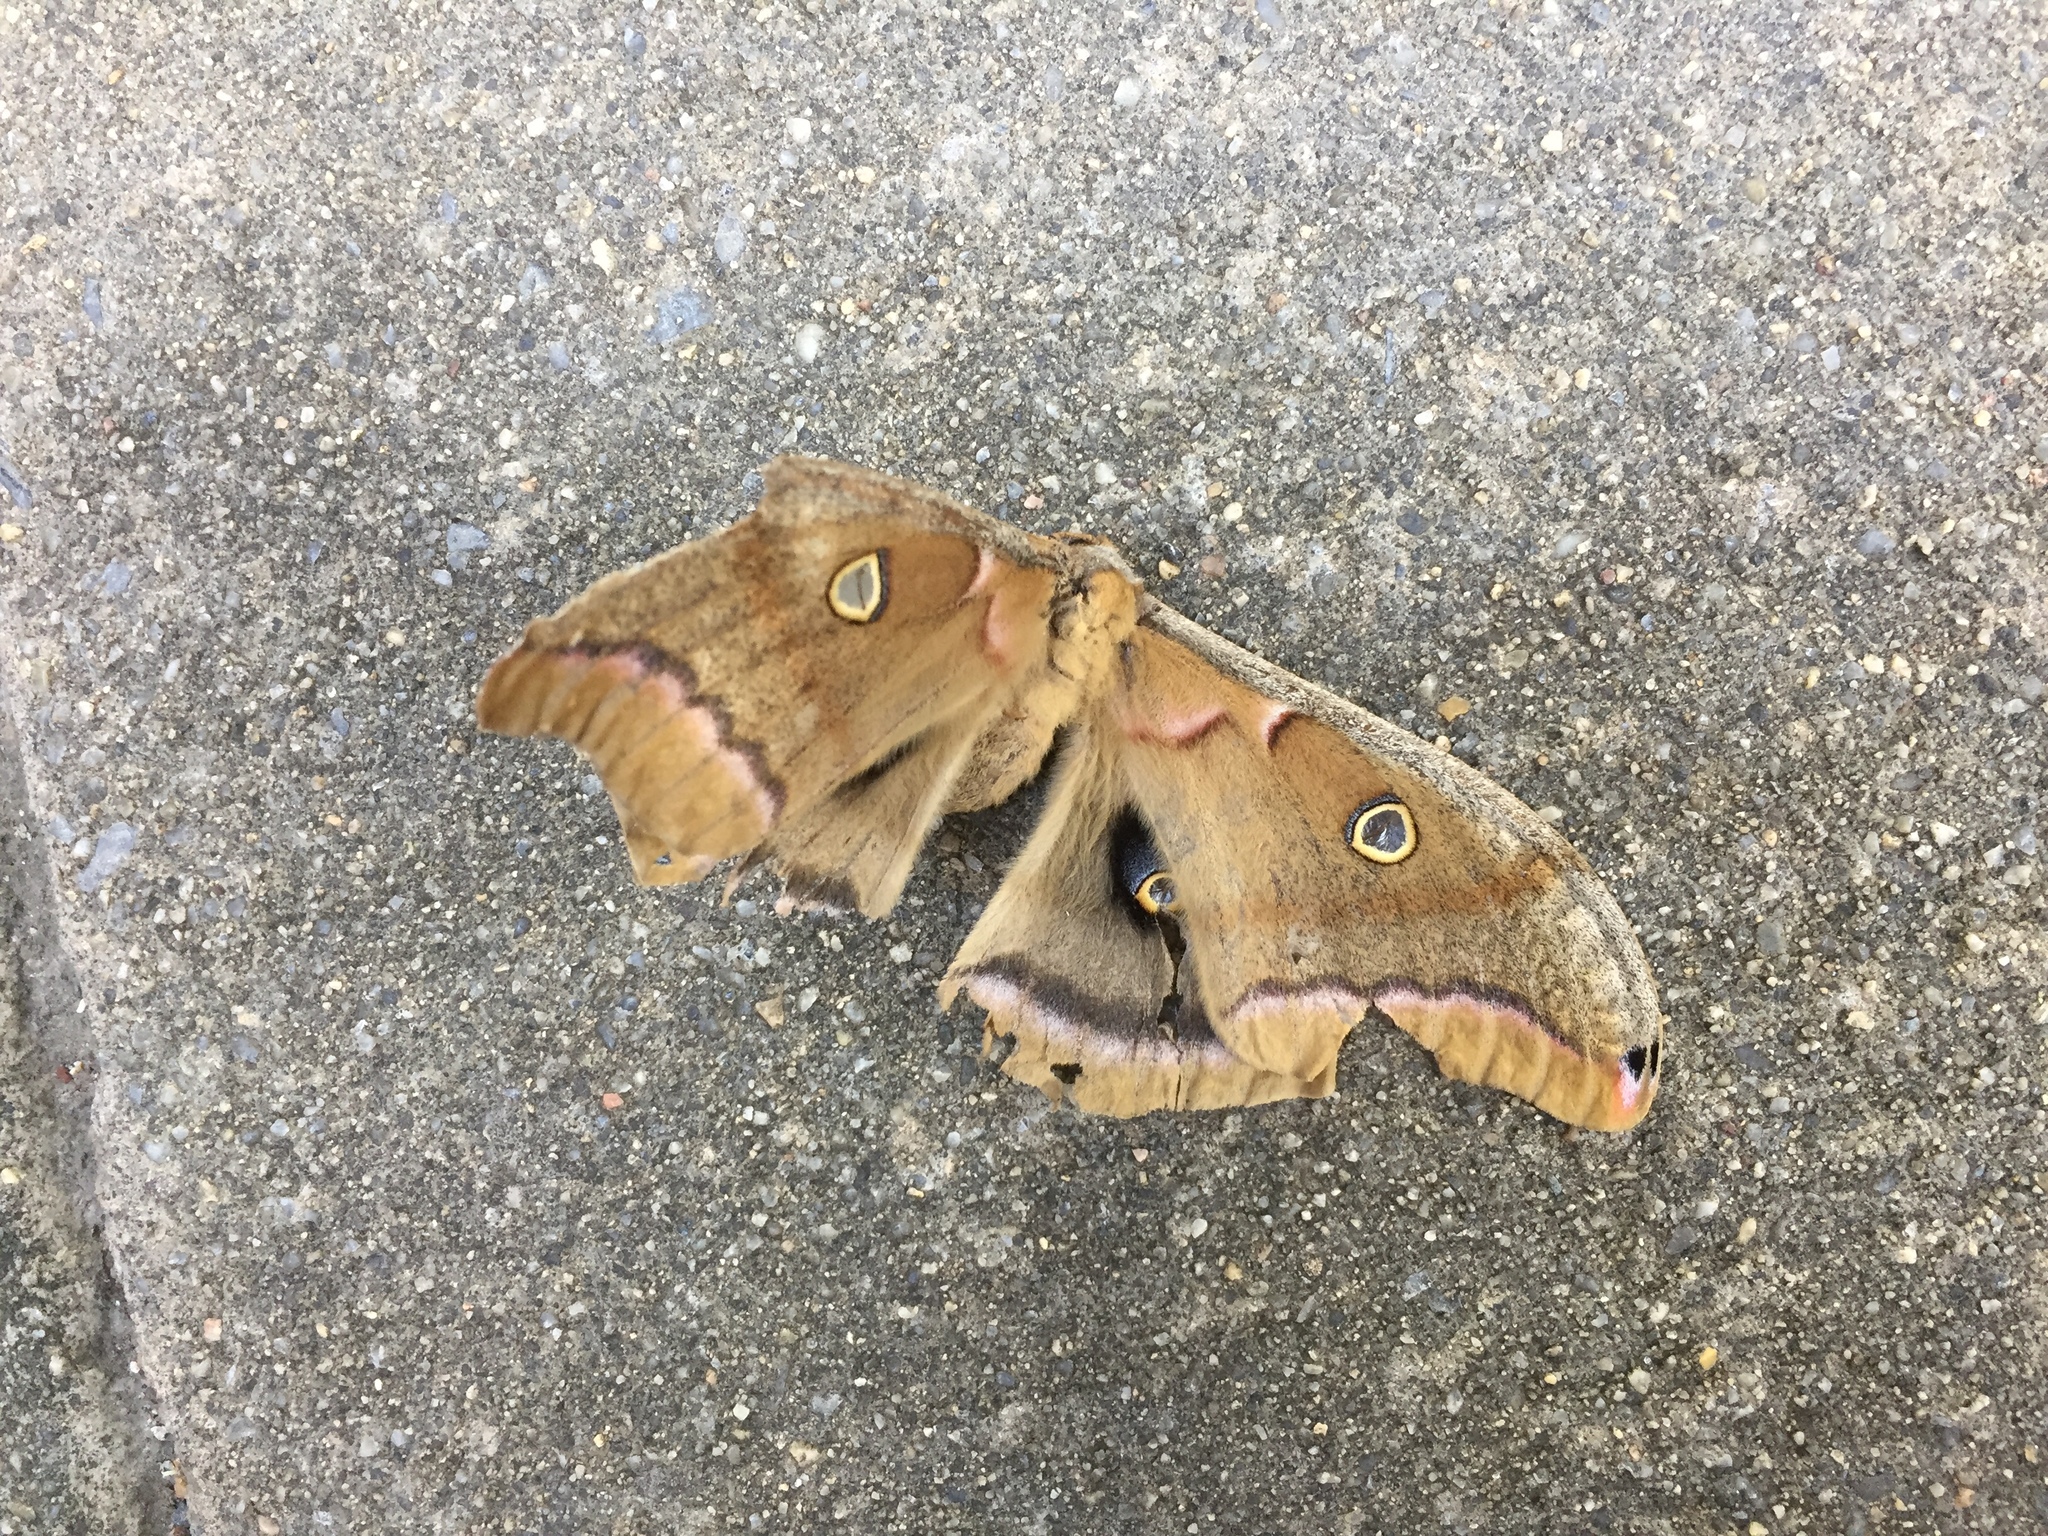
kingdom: Animalia
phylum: Arthropoda
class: Insecta
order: Lepidoptera
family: Saturniidae
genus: Antheraea
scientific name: Antheraea polyphemus
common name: Polyphemus moth
